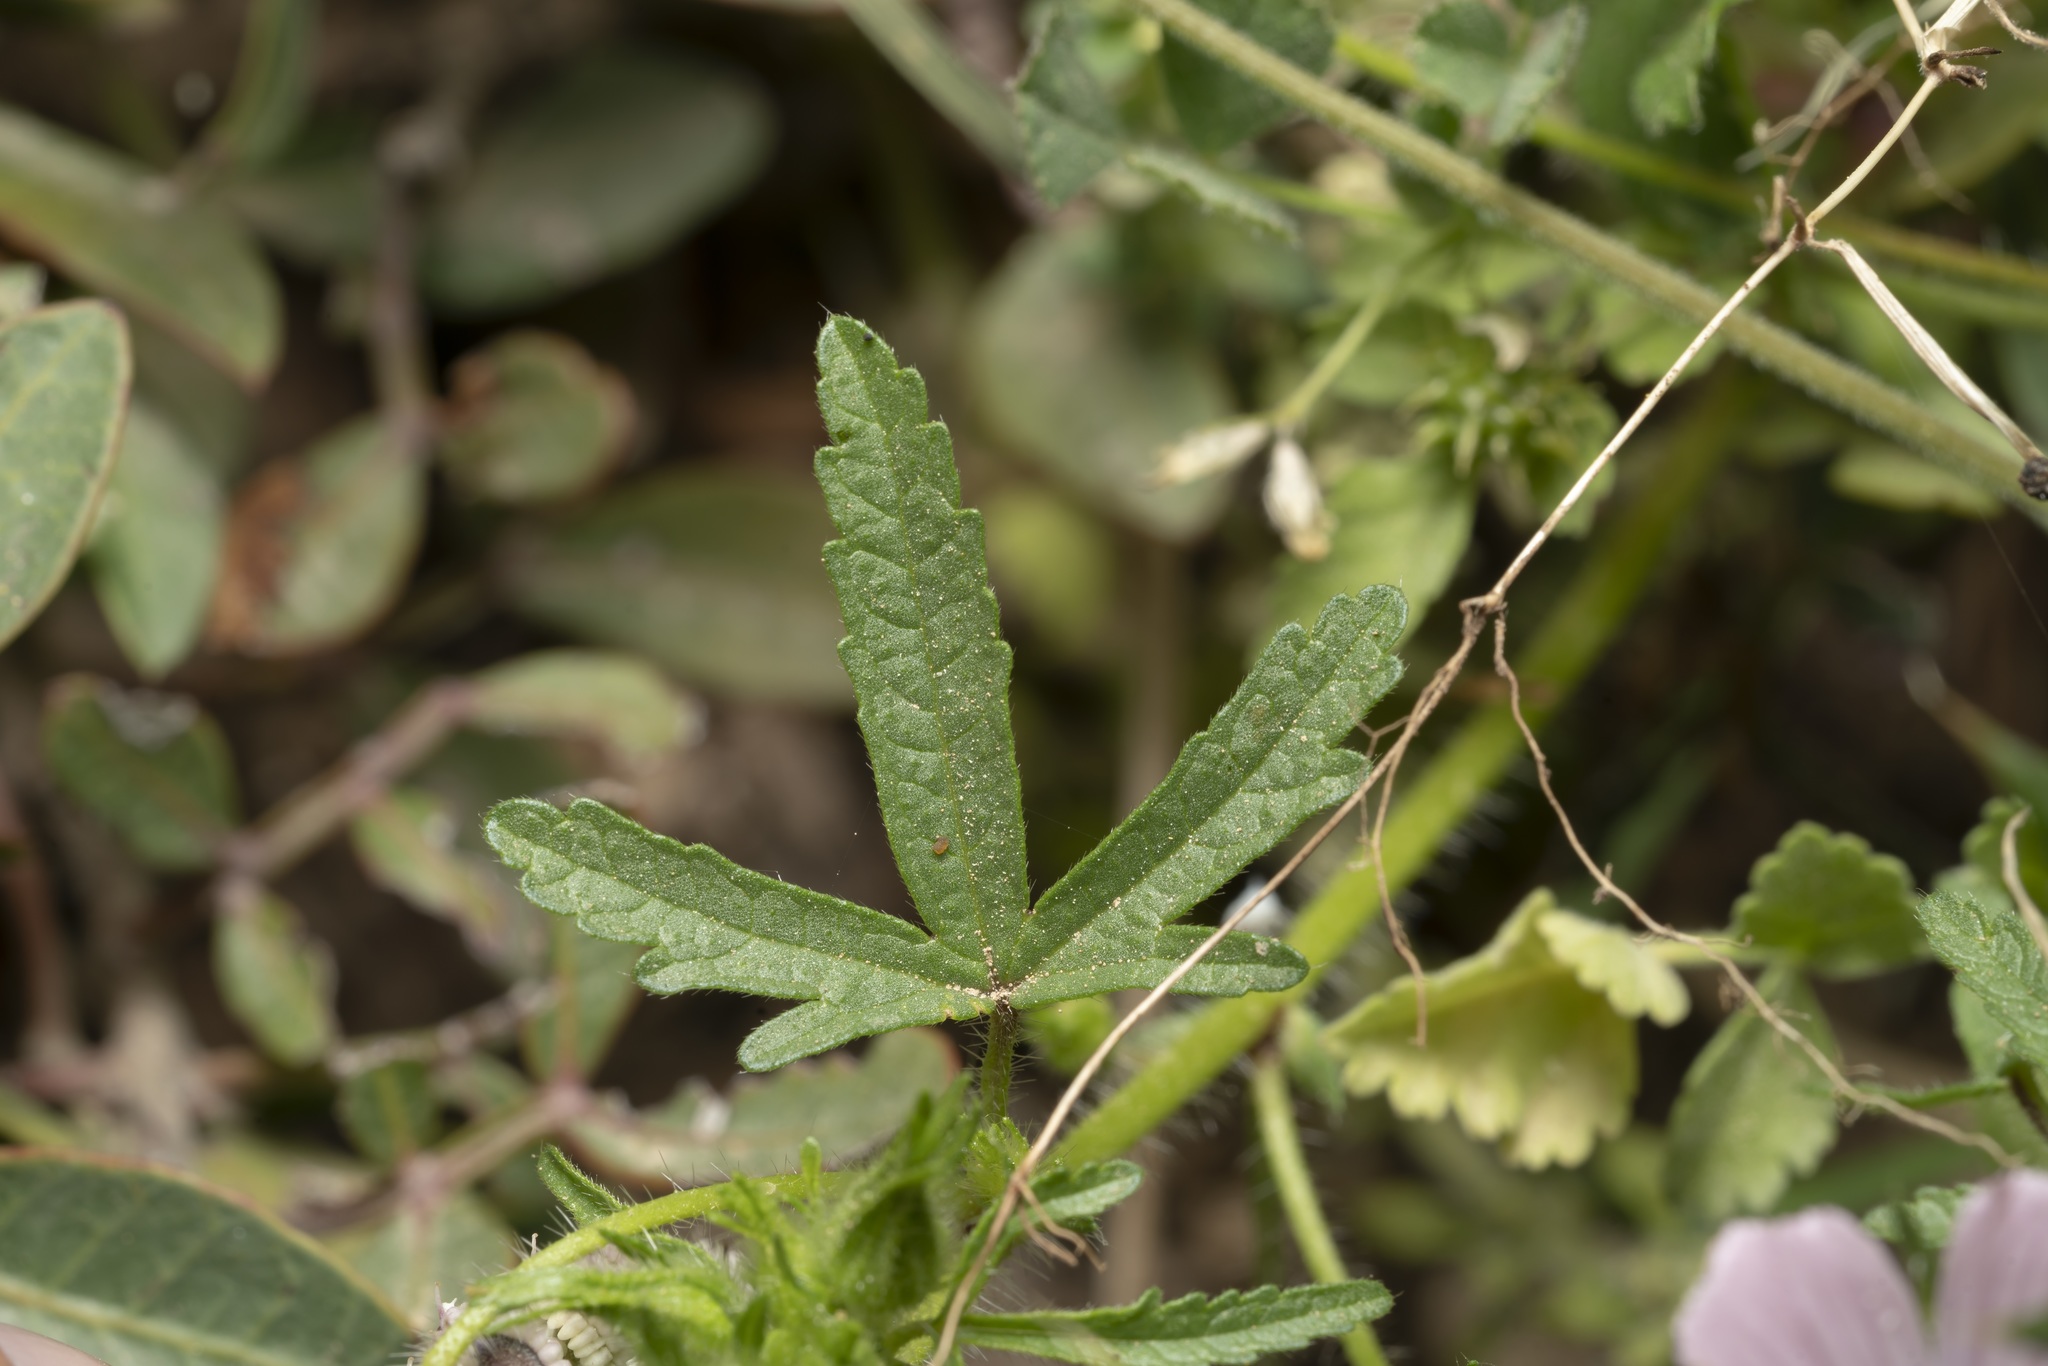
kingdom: Plantae
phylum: Tracheophyta
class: Magnoliopsida
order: Malvales
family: Malvaceae
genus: Malva
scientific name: Malva cretica
